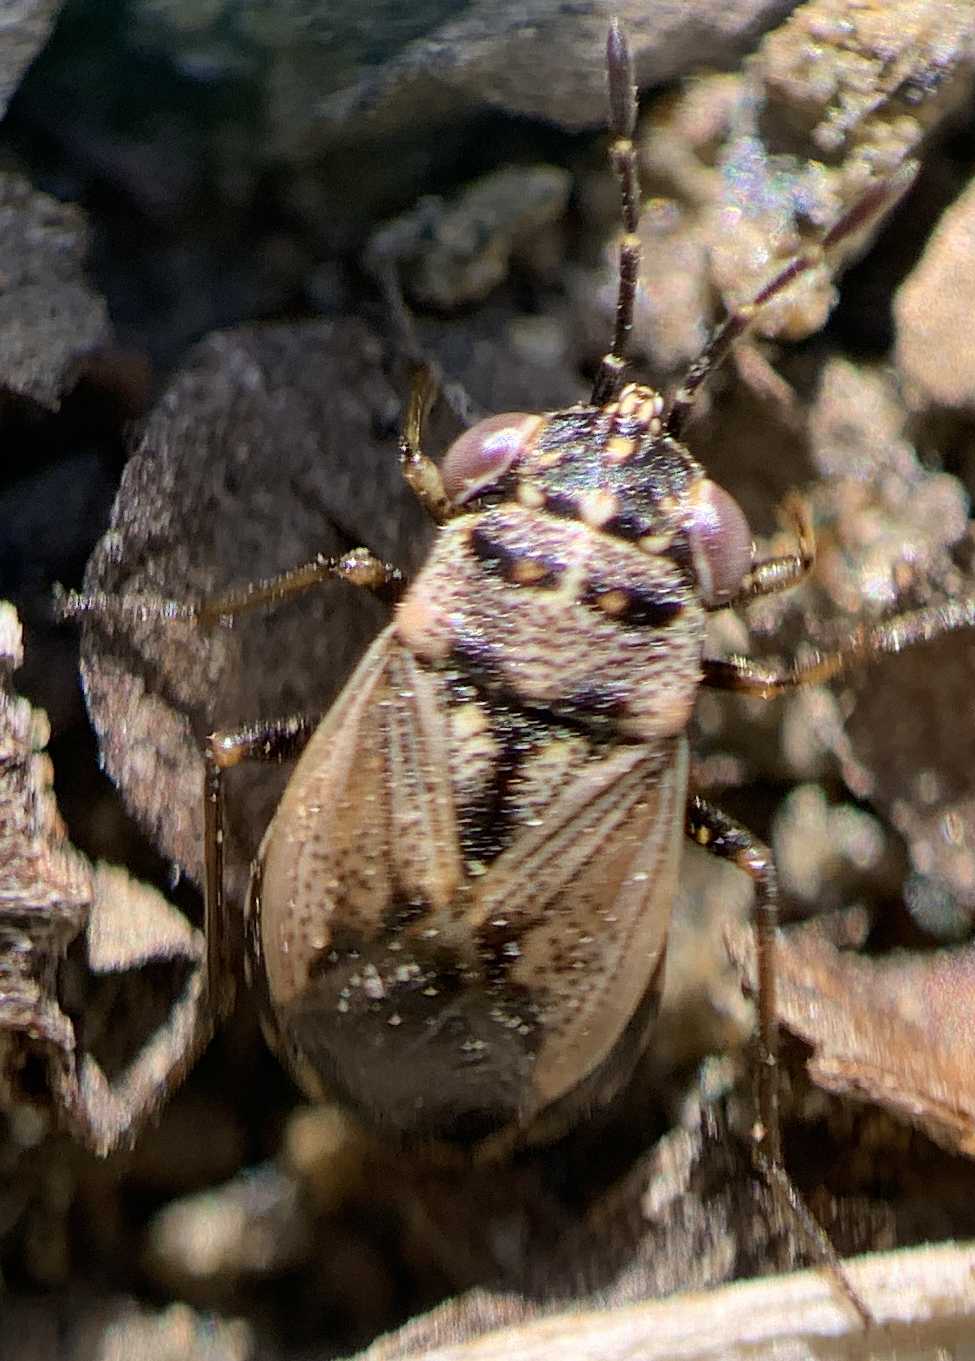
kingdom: Animalia
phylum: Arthropoda
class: Insecta
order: Hemiptera
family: Geocoridae
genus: Geocoris
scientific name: Geocoris pallens
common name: Big-eyed bug
